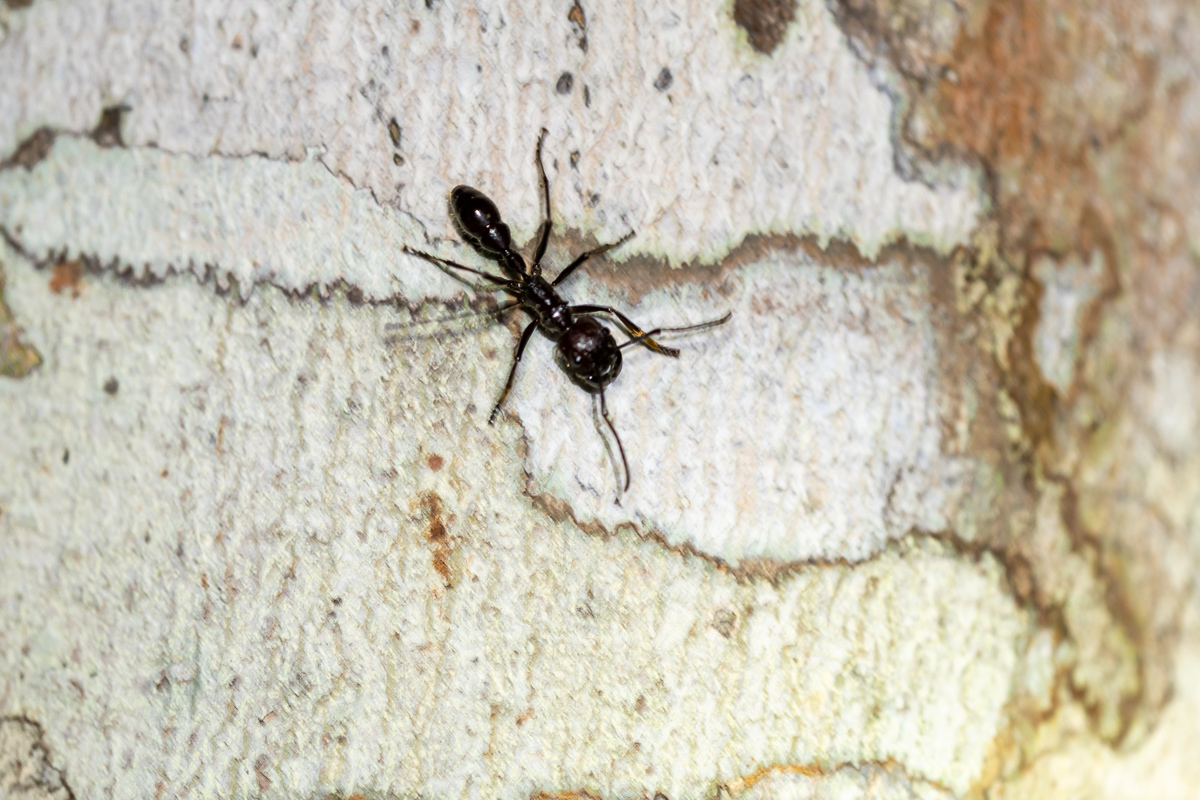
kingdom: Animalia
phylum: Arthropoda
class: Insecta
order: Hymenoptera
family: Formicidae
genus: Paraponera
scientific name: Paraponera clavata
